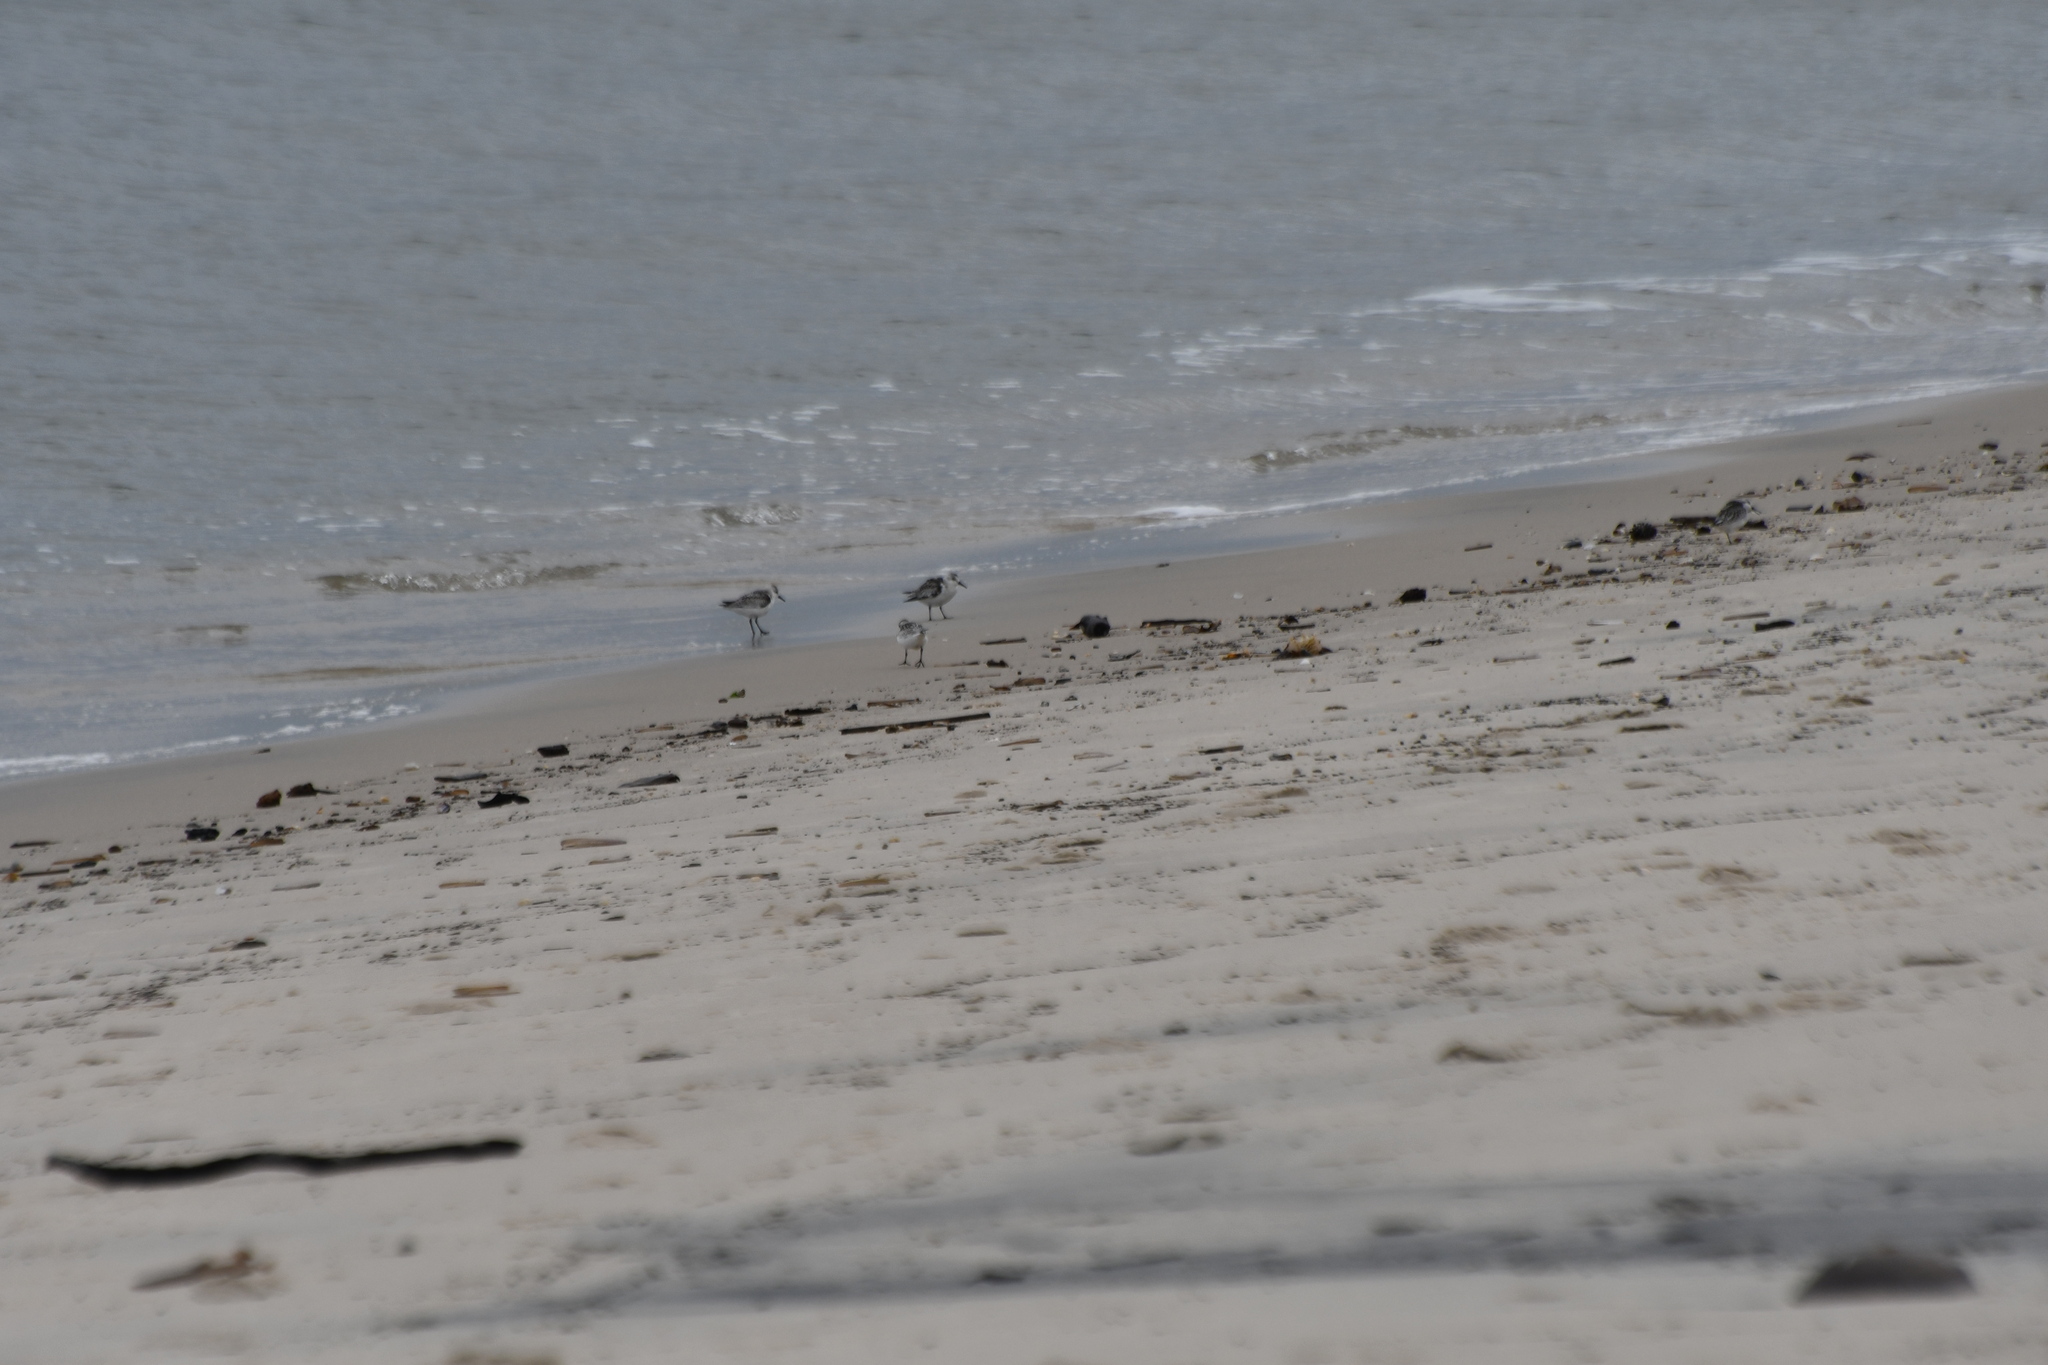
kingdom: Animalia
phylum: Chordata
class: Aves
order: Charadriiformes
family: Scolopacidae
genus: Calidris
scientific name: Calidris alba
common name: Sanderling
